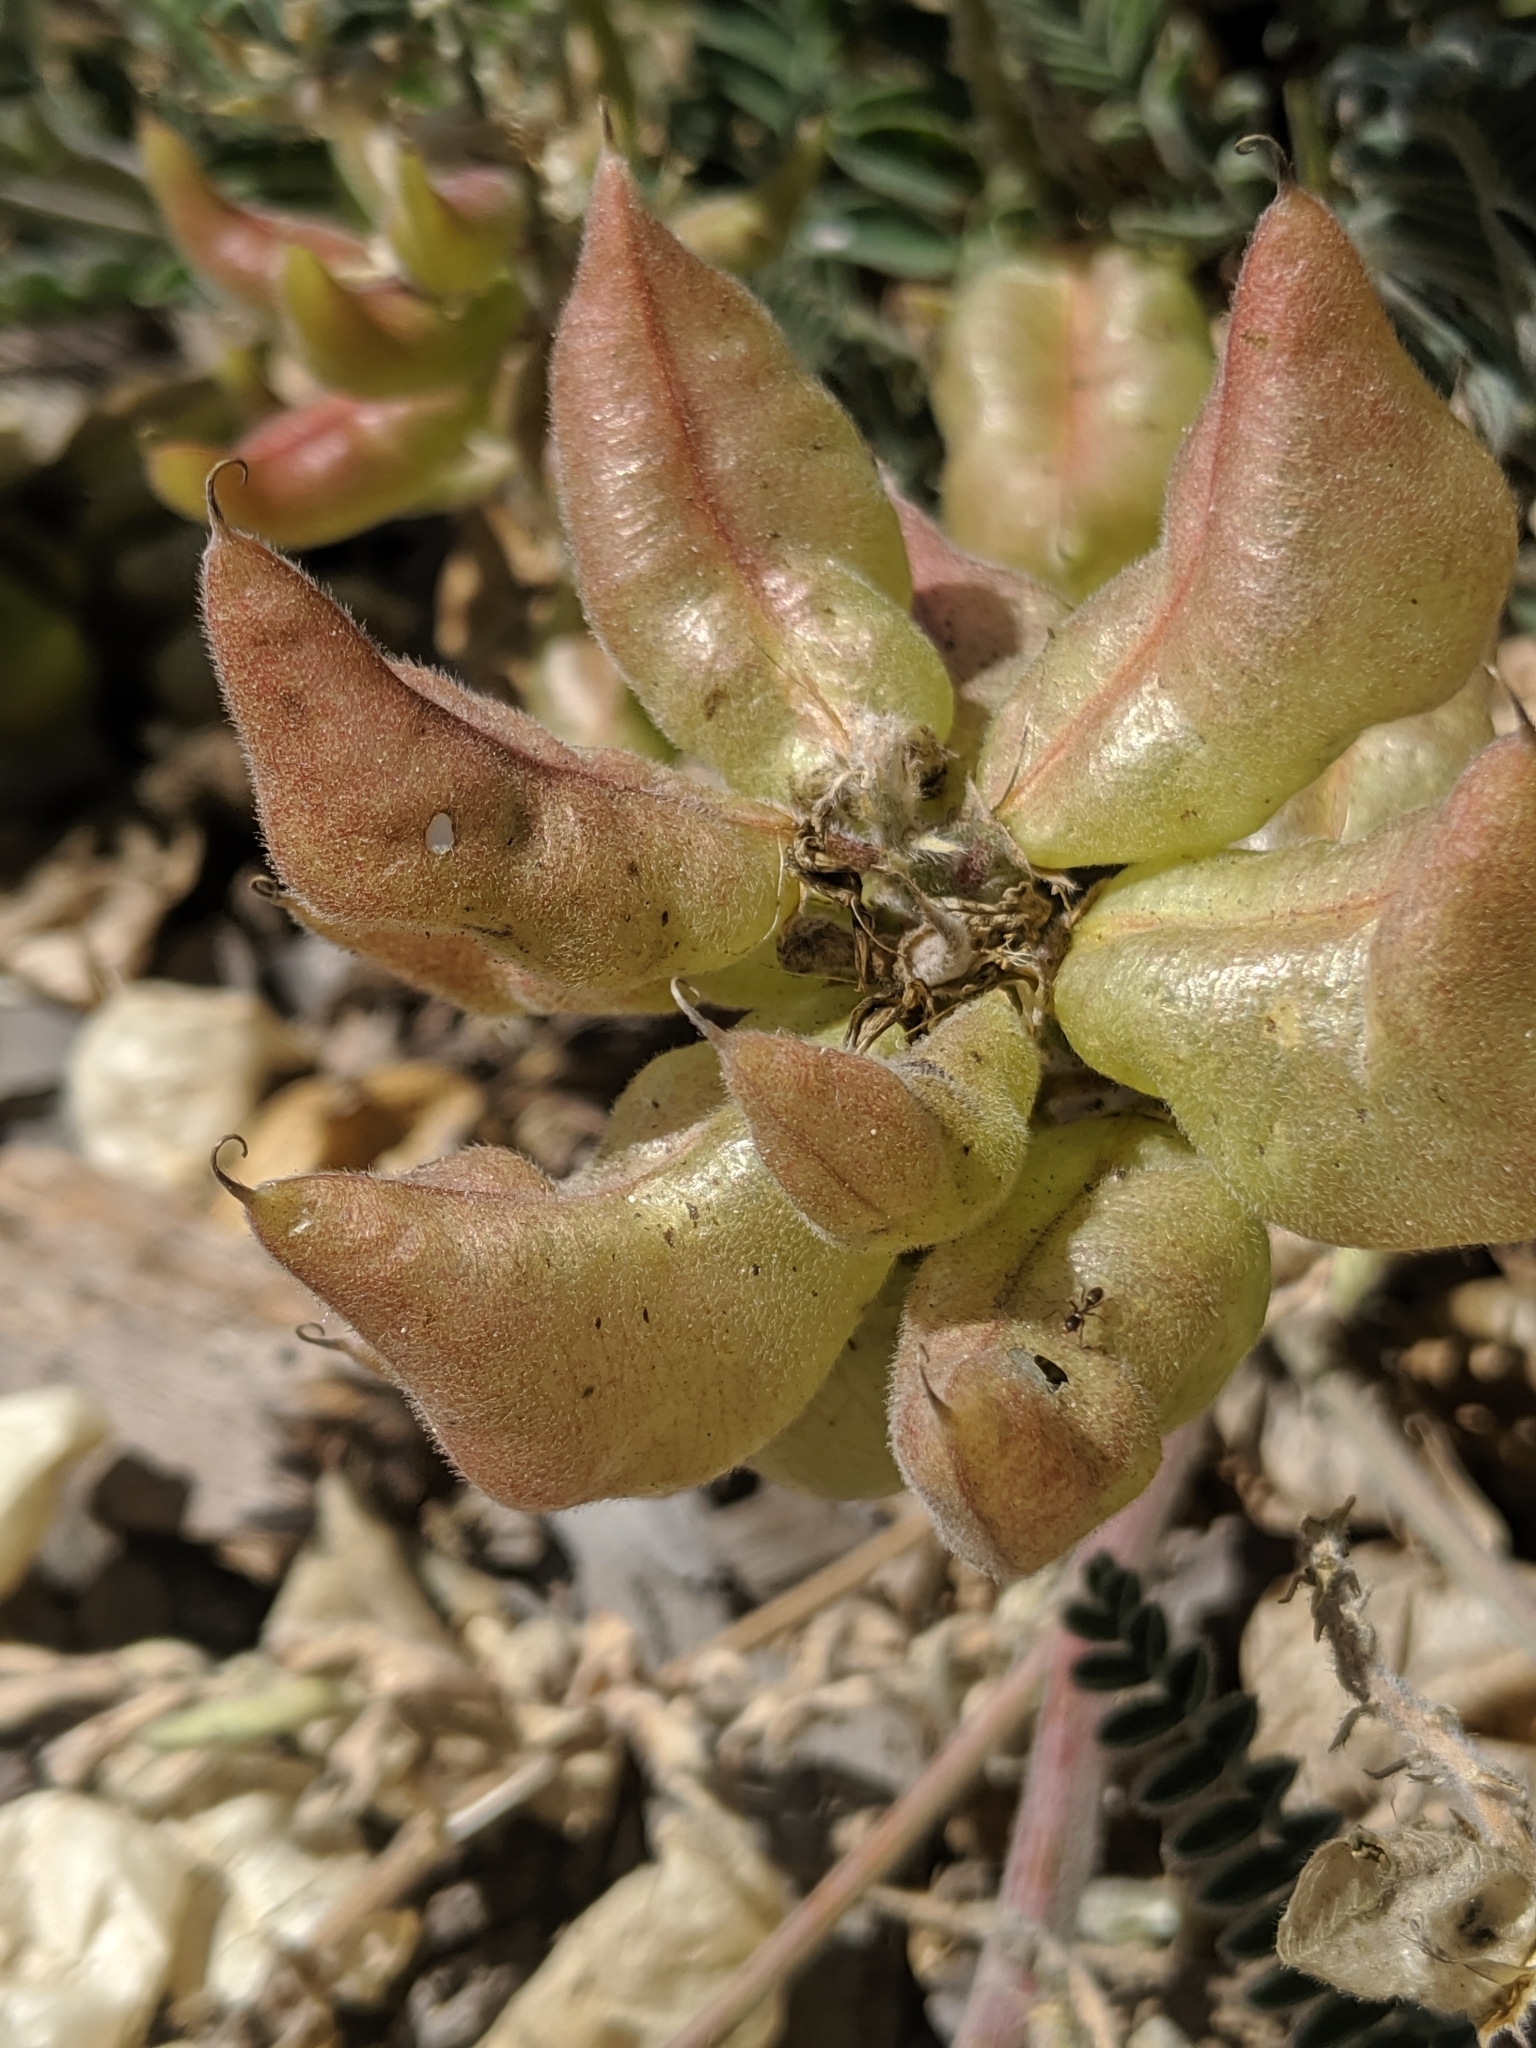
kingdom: Plantae
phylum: Tracheophyta
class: Magnoliopsida
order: Fabales
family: Fabaceae
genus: Astragalus
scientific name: Astragalus nuttallii
